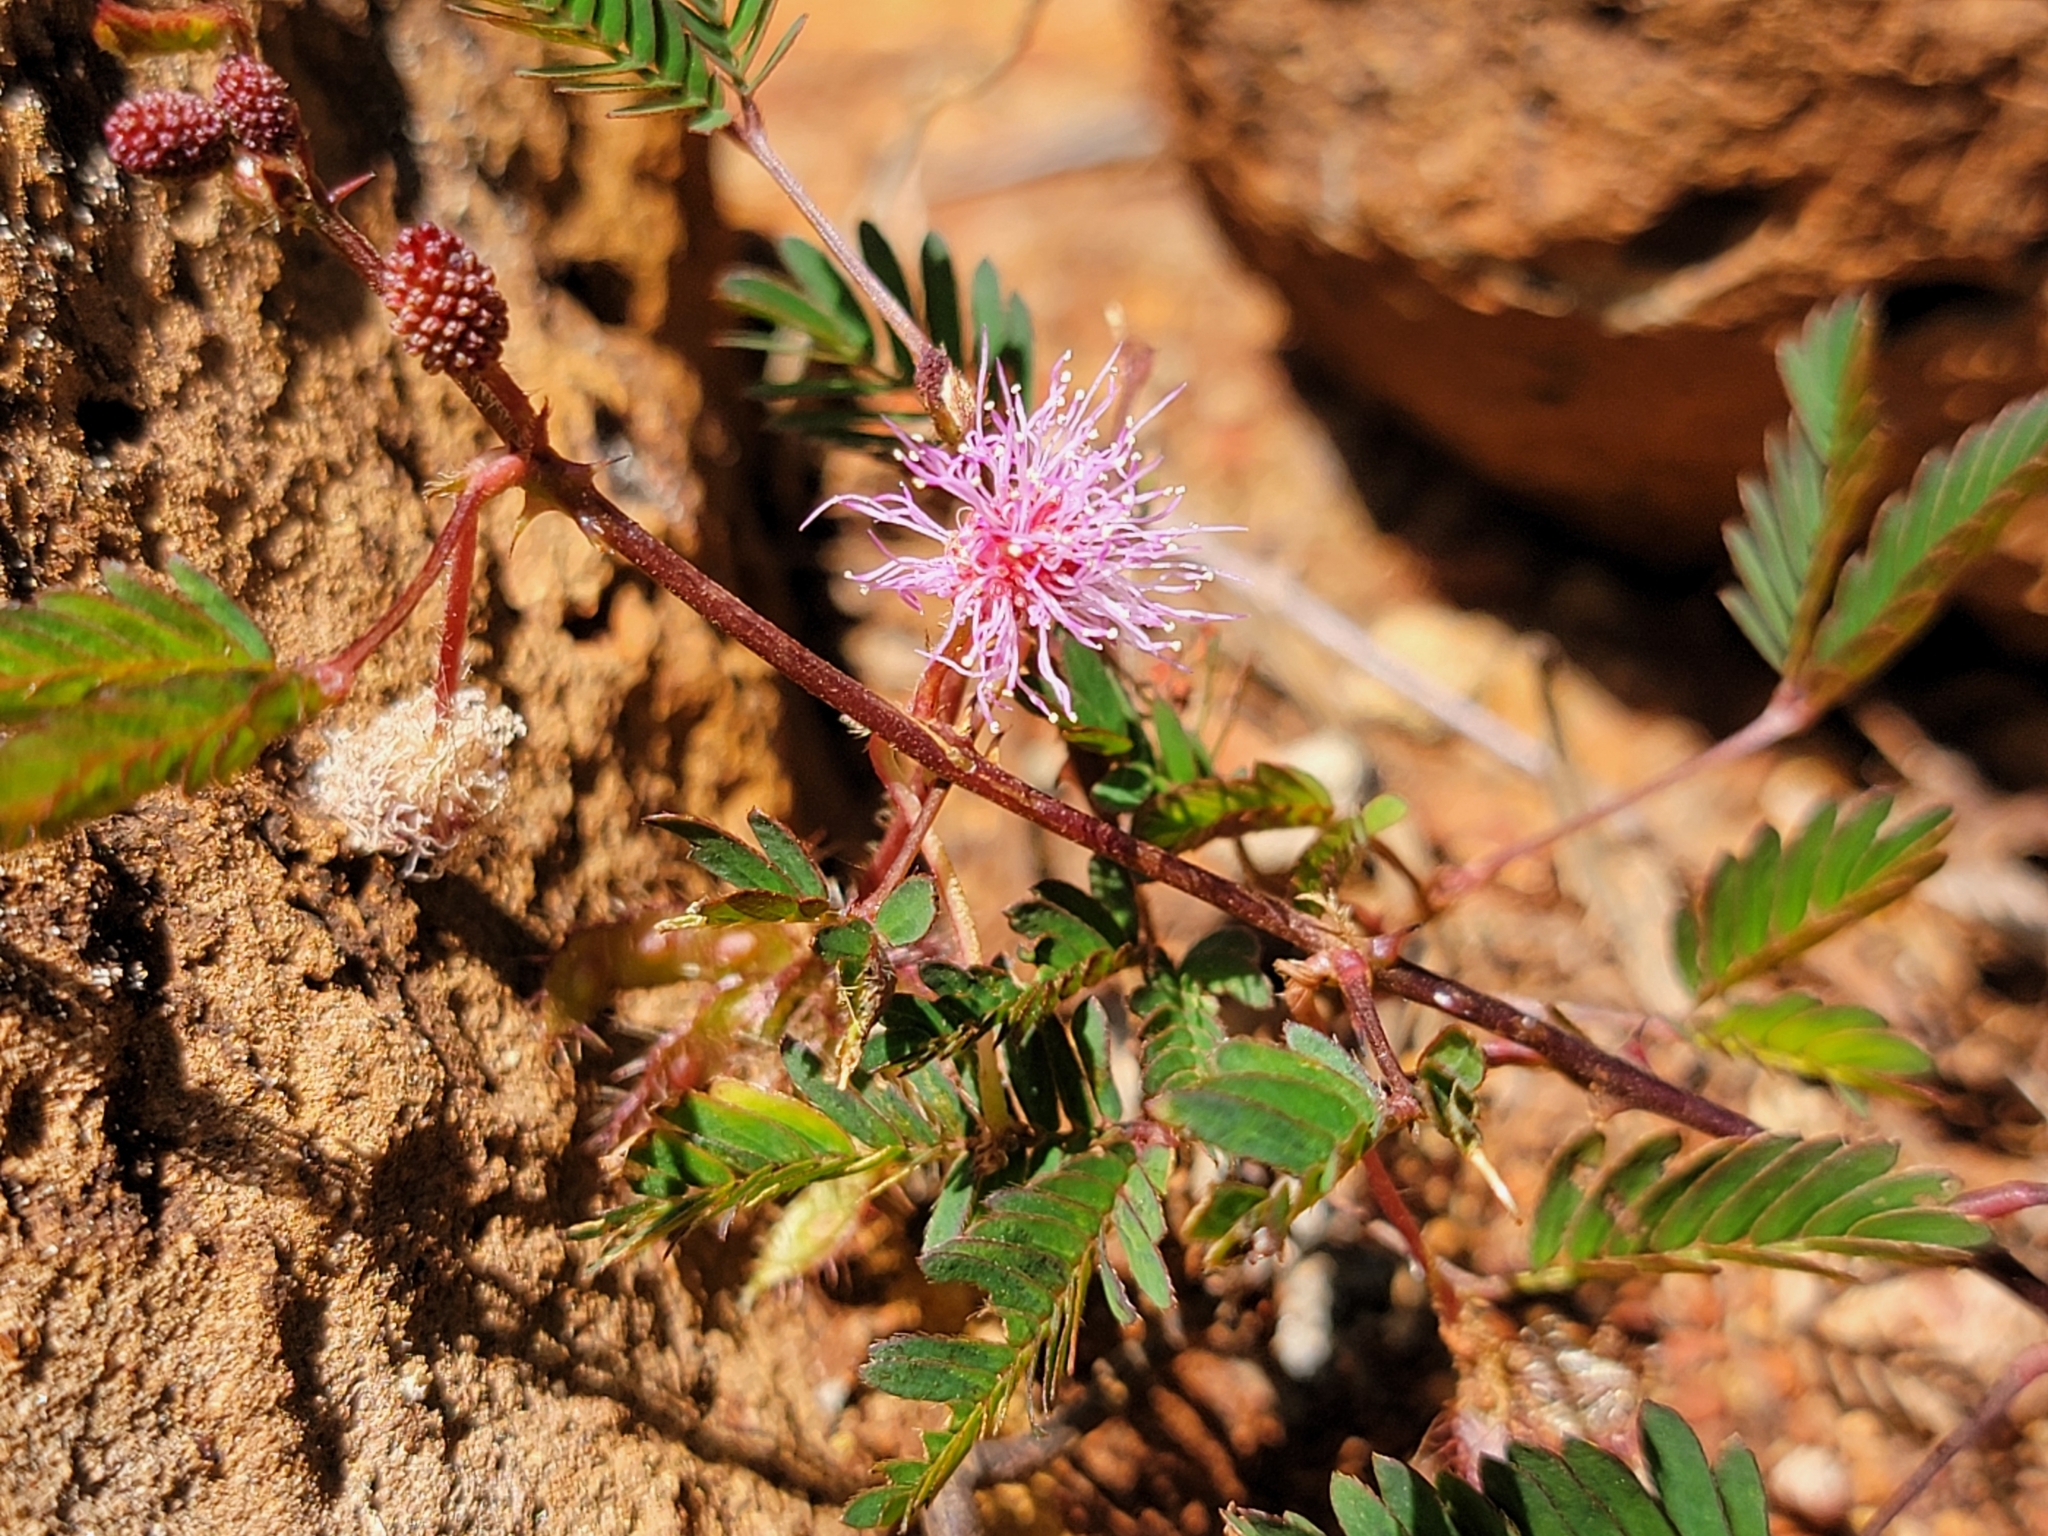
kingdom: Plantae
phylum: Tracheophyta
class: Magnoliopsida
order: Fabales
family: Fabaceae
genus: Mimosa
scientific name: Mimosa pudica
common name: Sensitive plant
